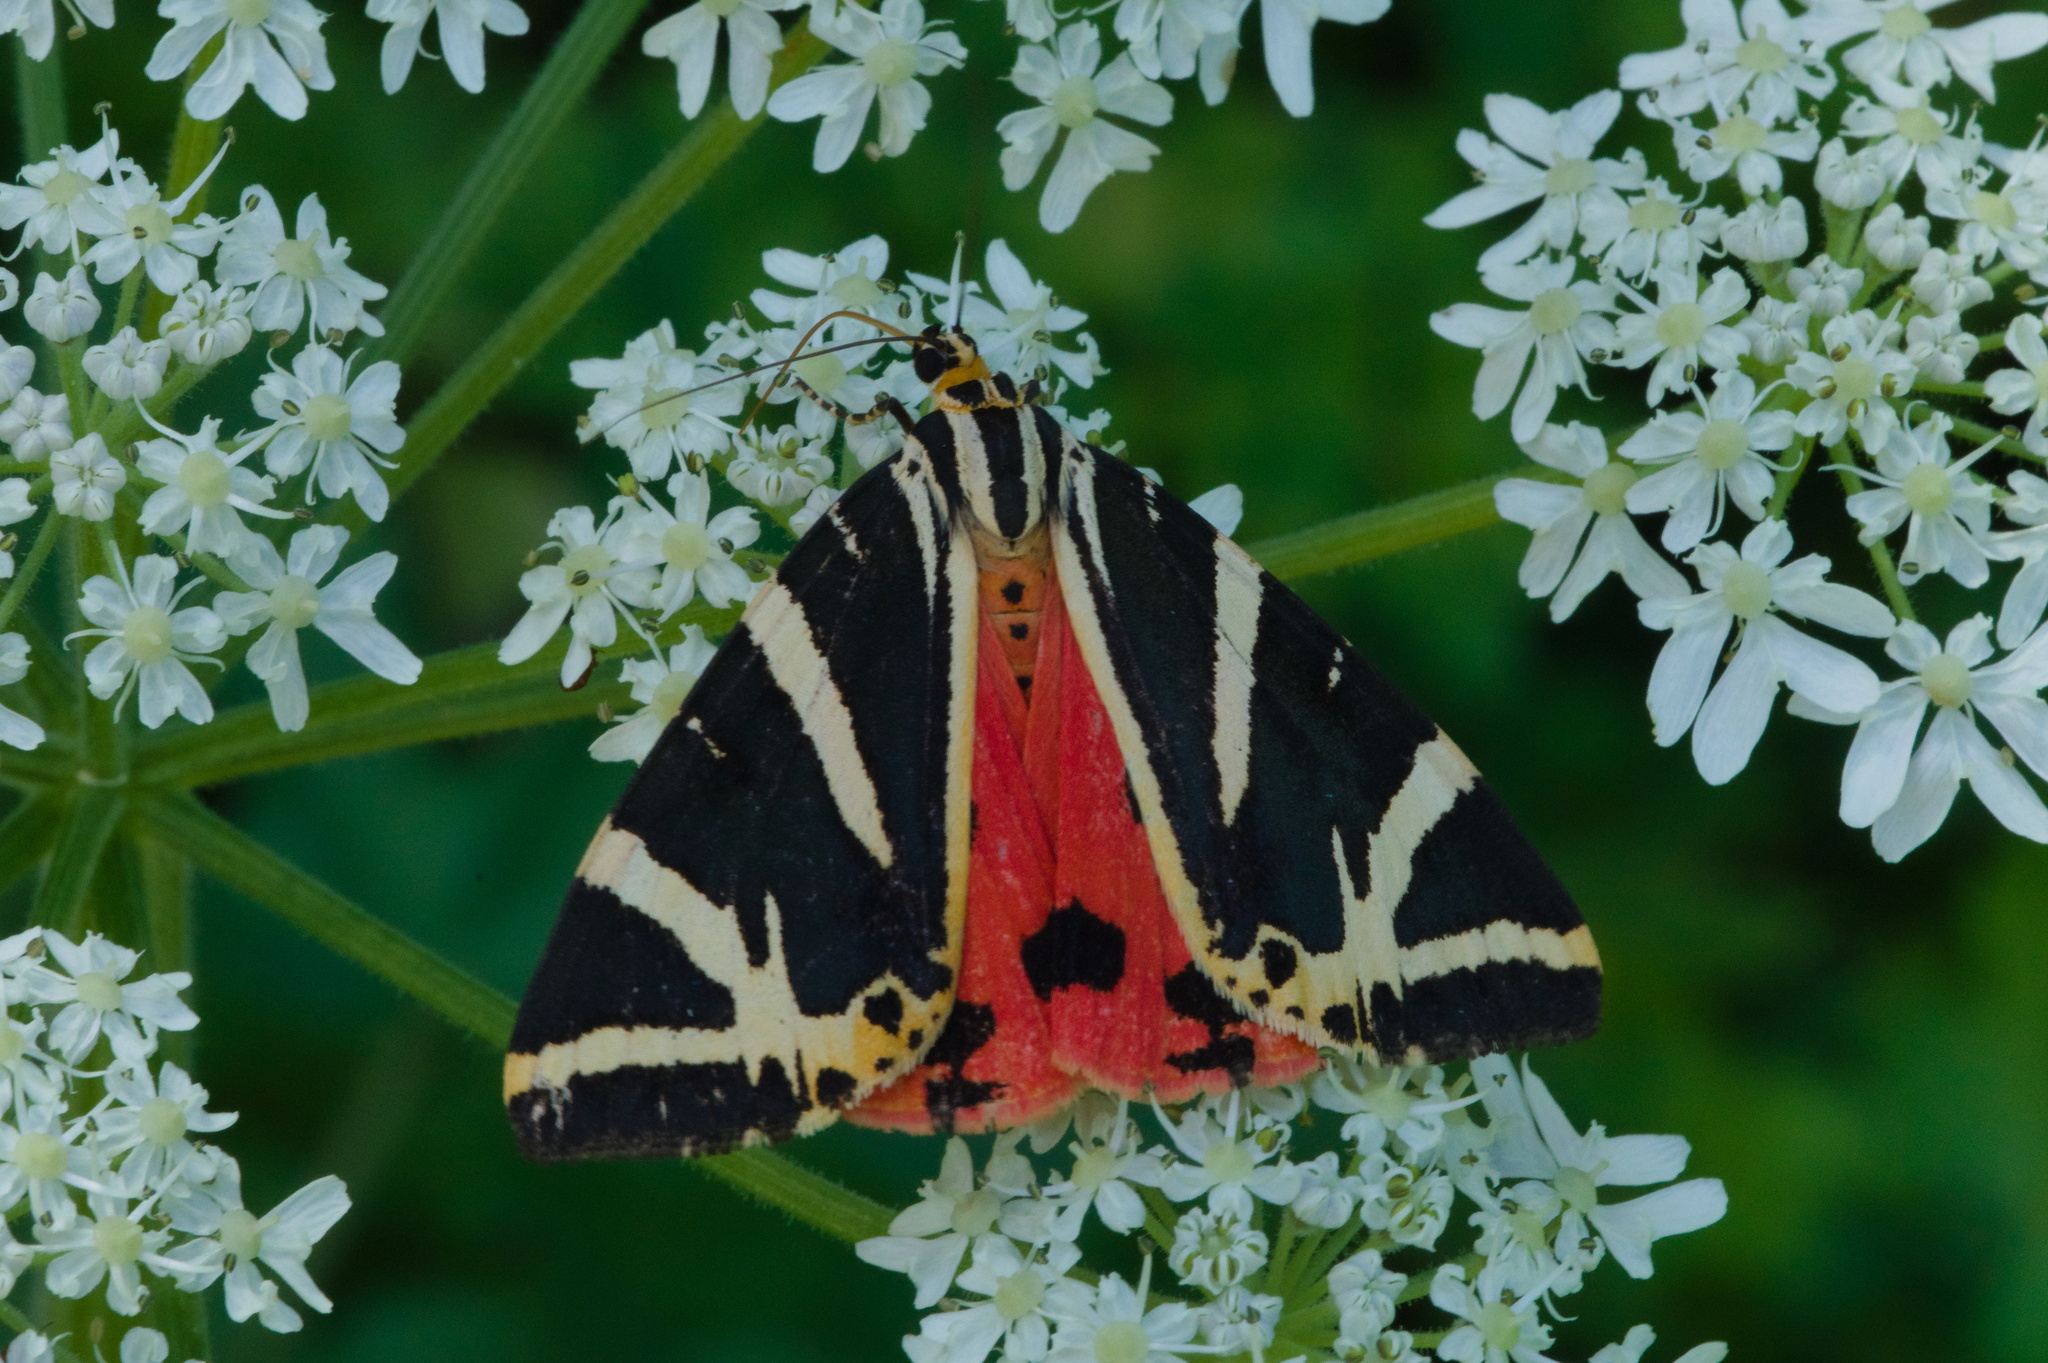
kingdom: Animalia
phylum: Arthropoda
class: Insecta
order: Lepidoptera
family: Erebidae
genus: Euplagia
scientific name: Euplagia quadripunctaria
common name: Jersey tiger
